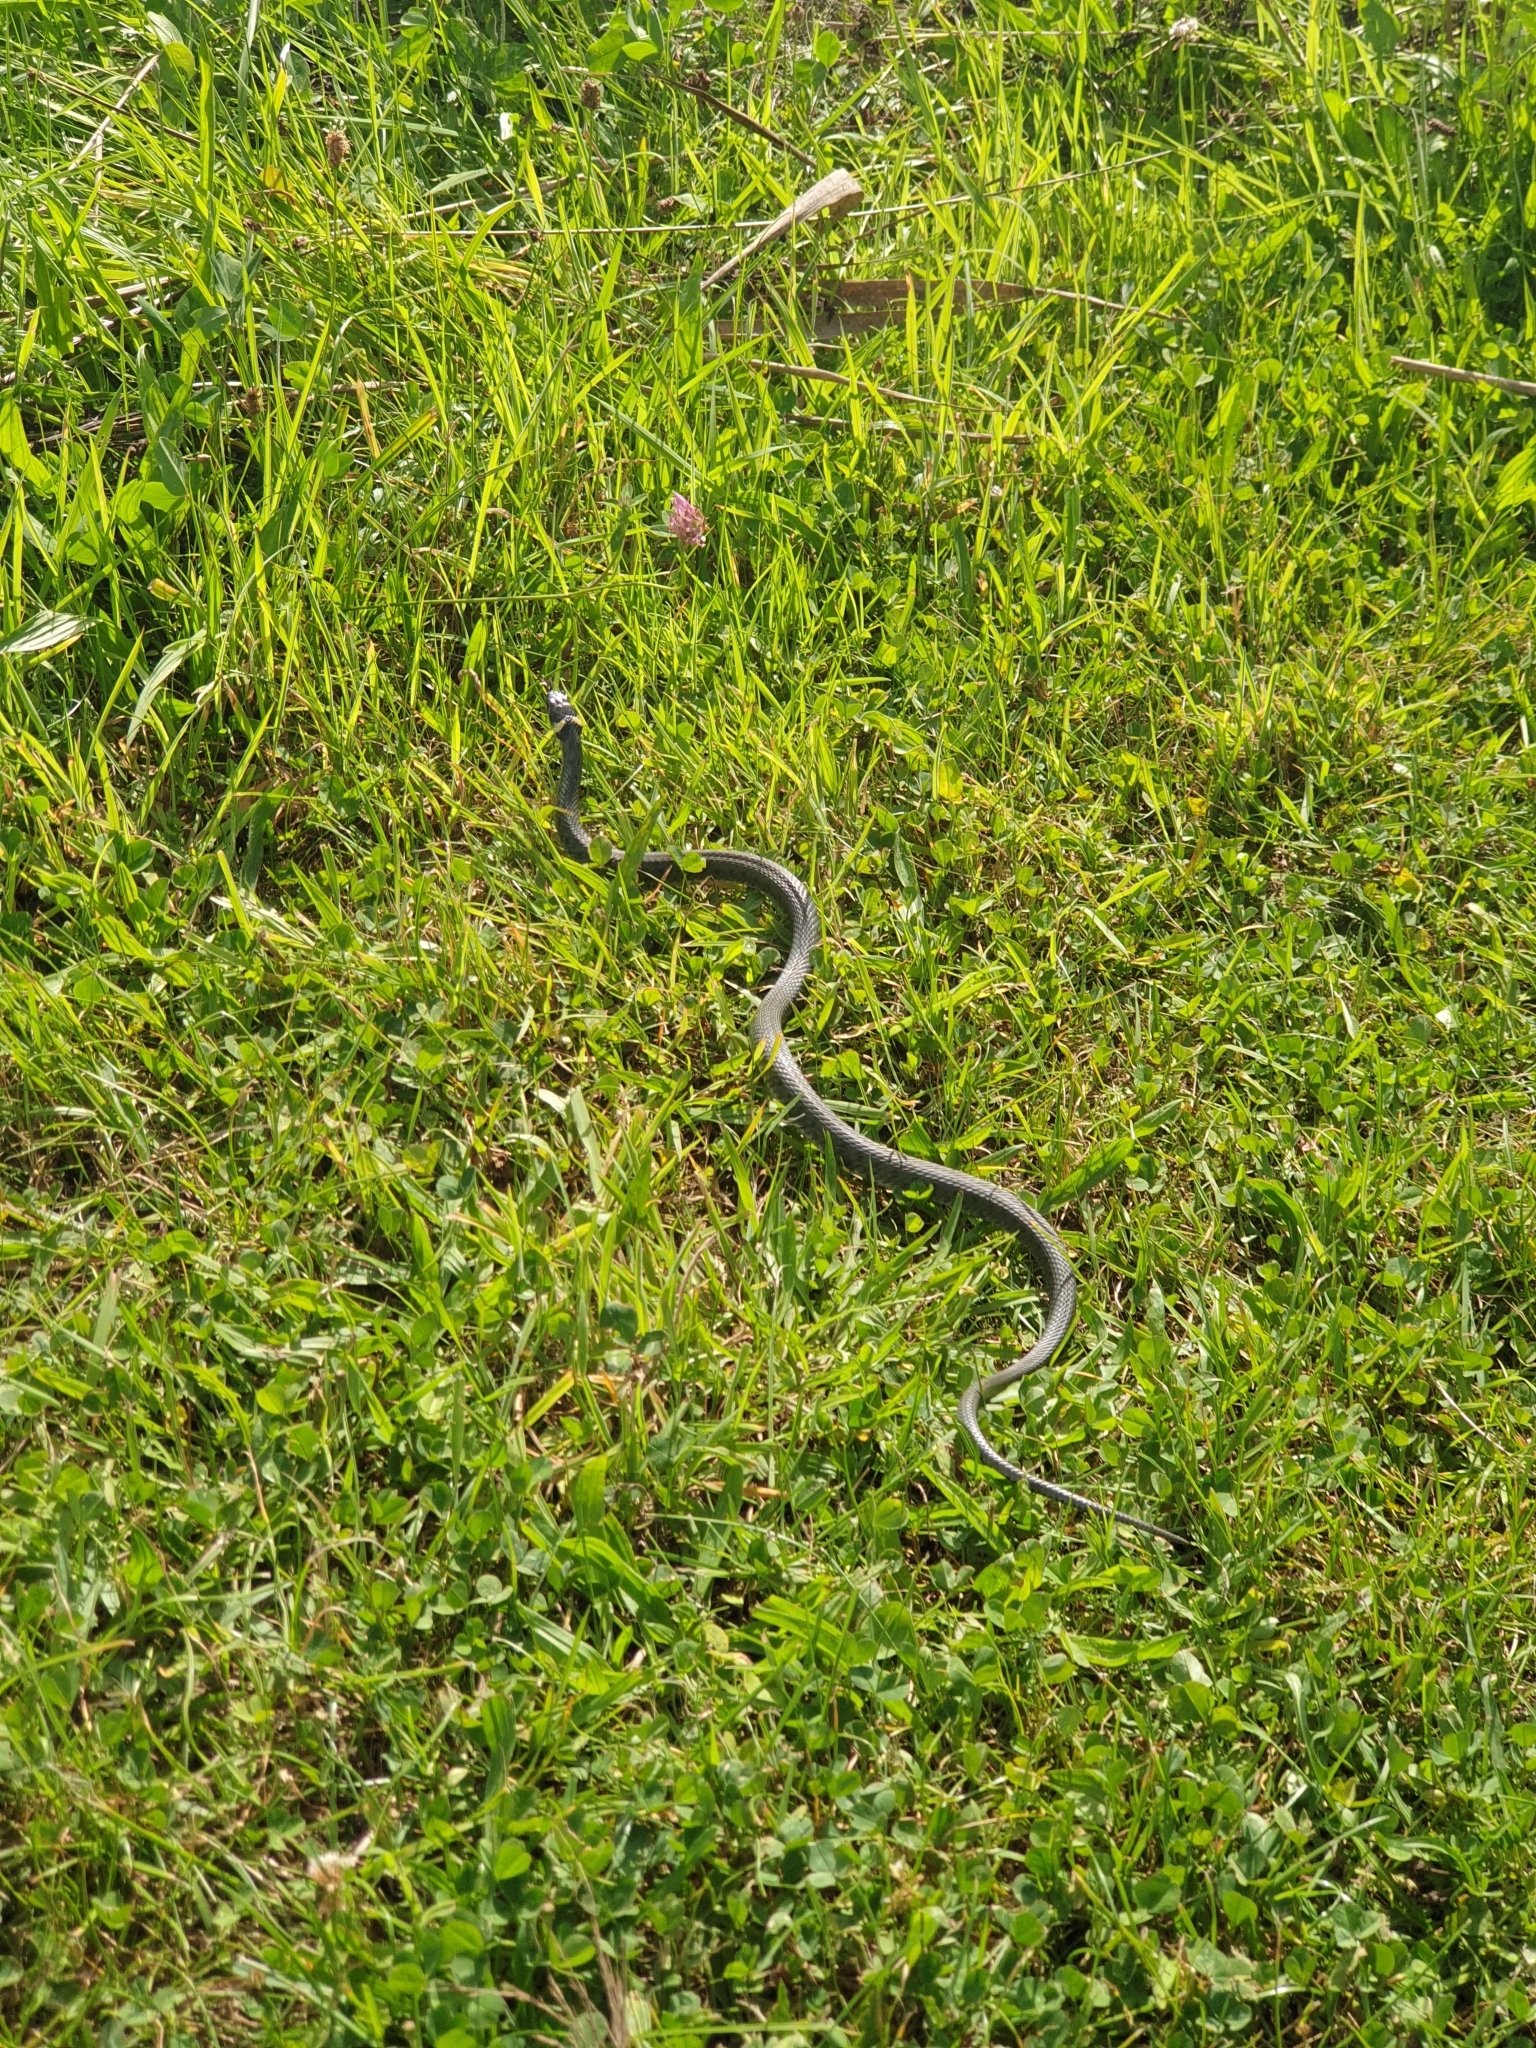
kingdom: Animalia
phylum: Chordata
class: Squamata
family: Colubridae
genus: Natrix
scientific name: Natrix natrix
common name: Grass snake
